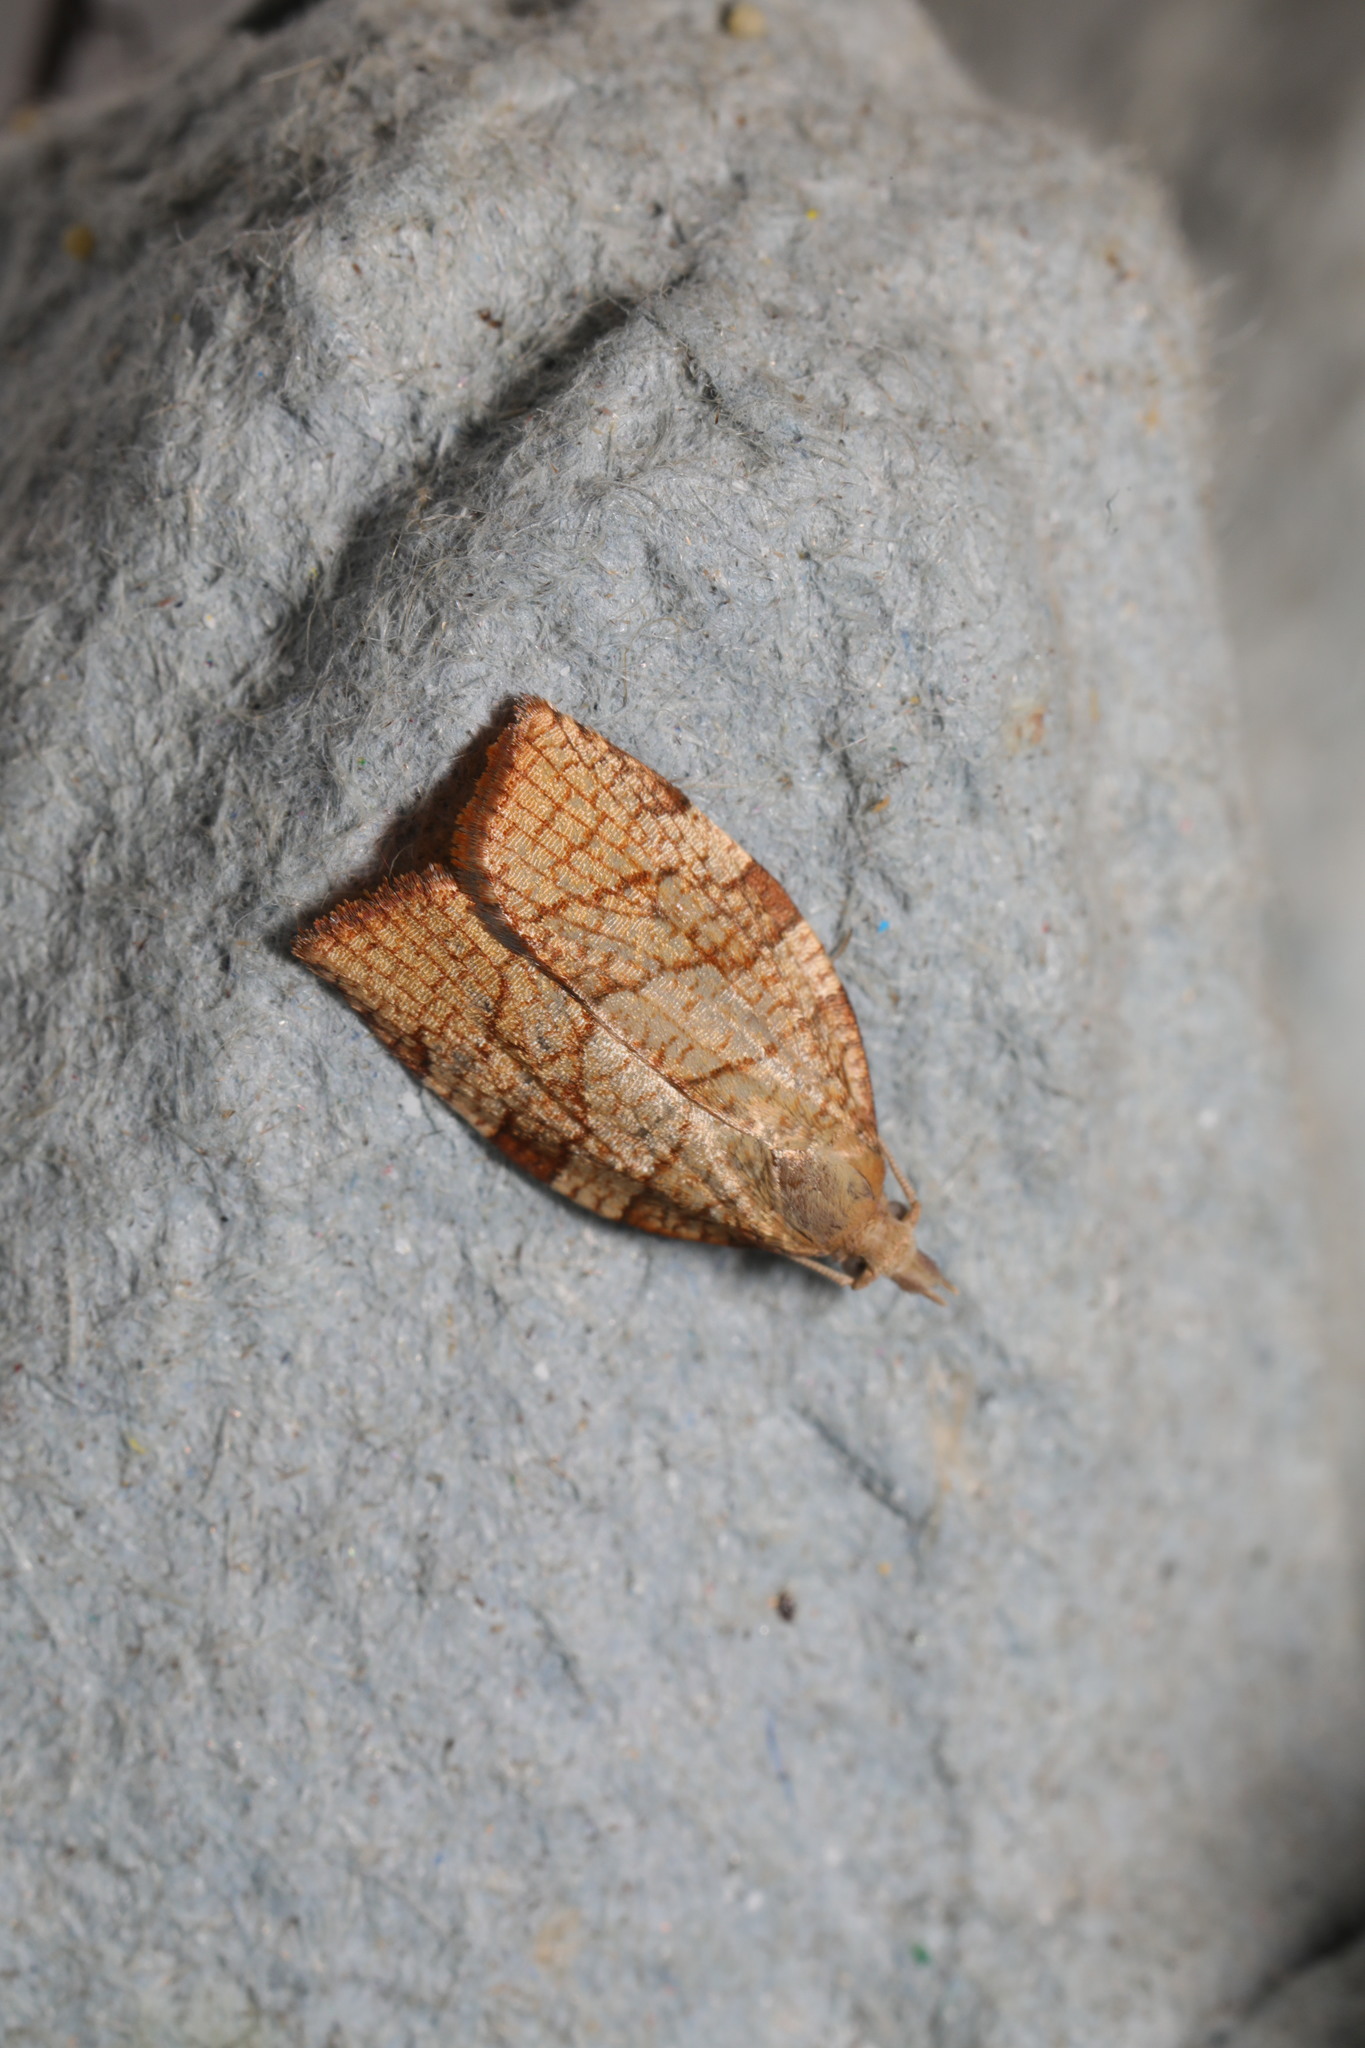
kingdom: Animalia
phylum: Arthropoda
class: Insecta
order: Lepidoptera
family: Tortricidae
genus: Pandemis
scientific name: Pandemis corylana
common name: Chequered fruit-tree tortrix
